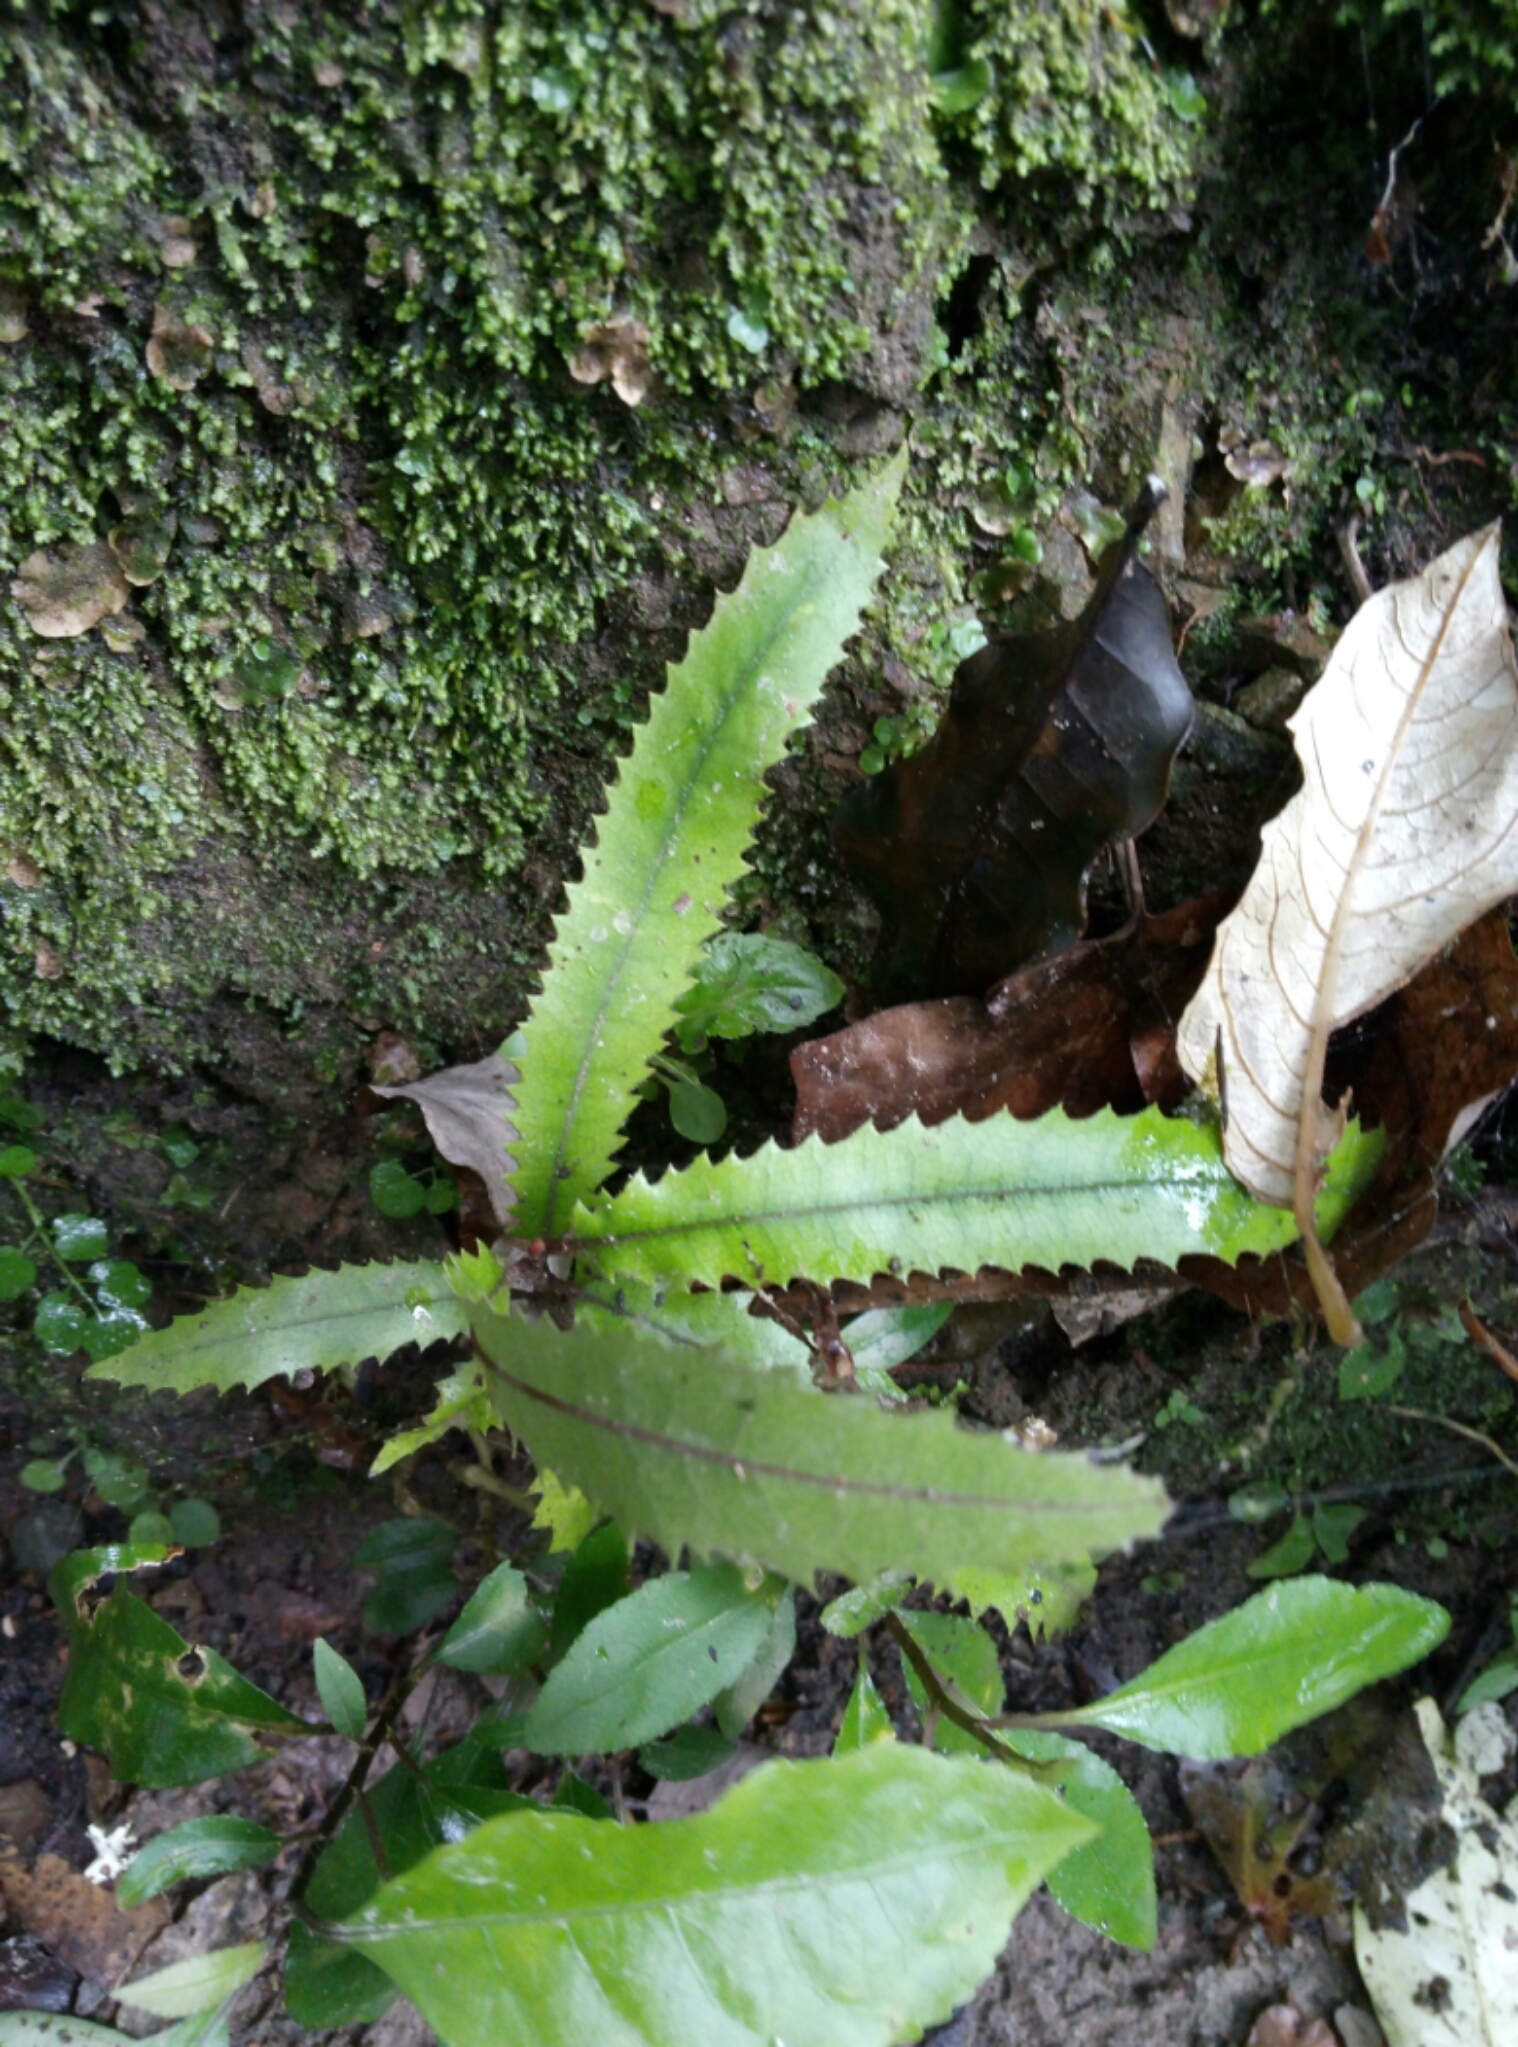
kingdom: Plantae
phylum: Tracheophyta
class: Magnoliopsida
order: Proteales
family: Proteaceae
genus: Knightia
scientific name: Knightia excelsa
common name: New zealand-honeysuckle
